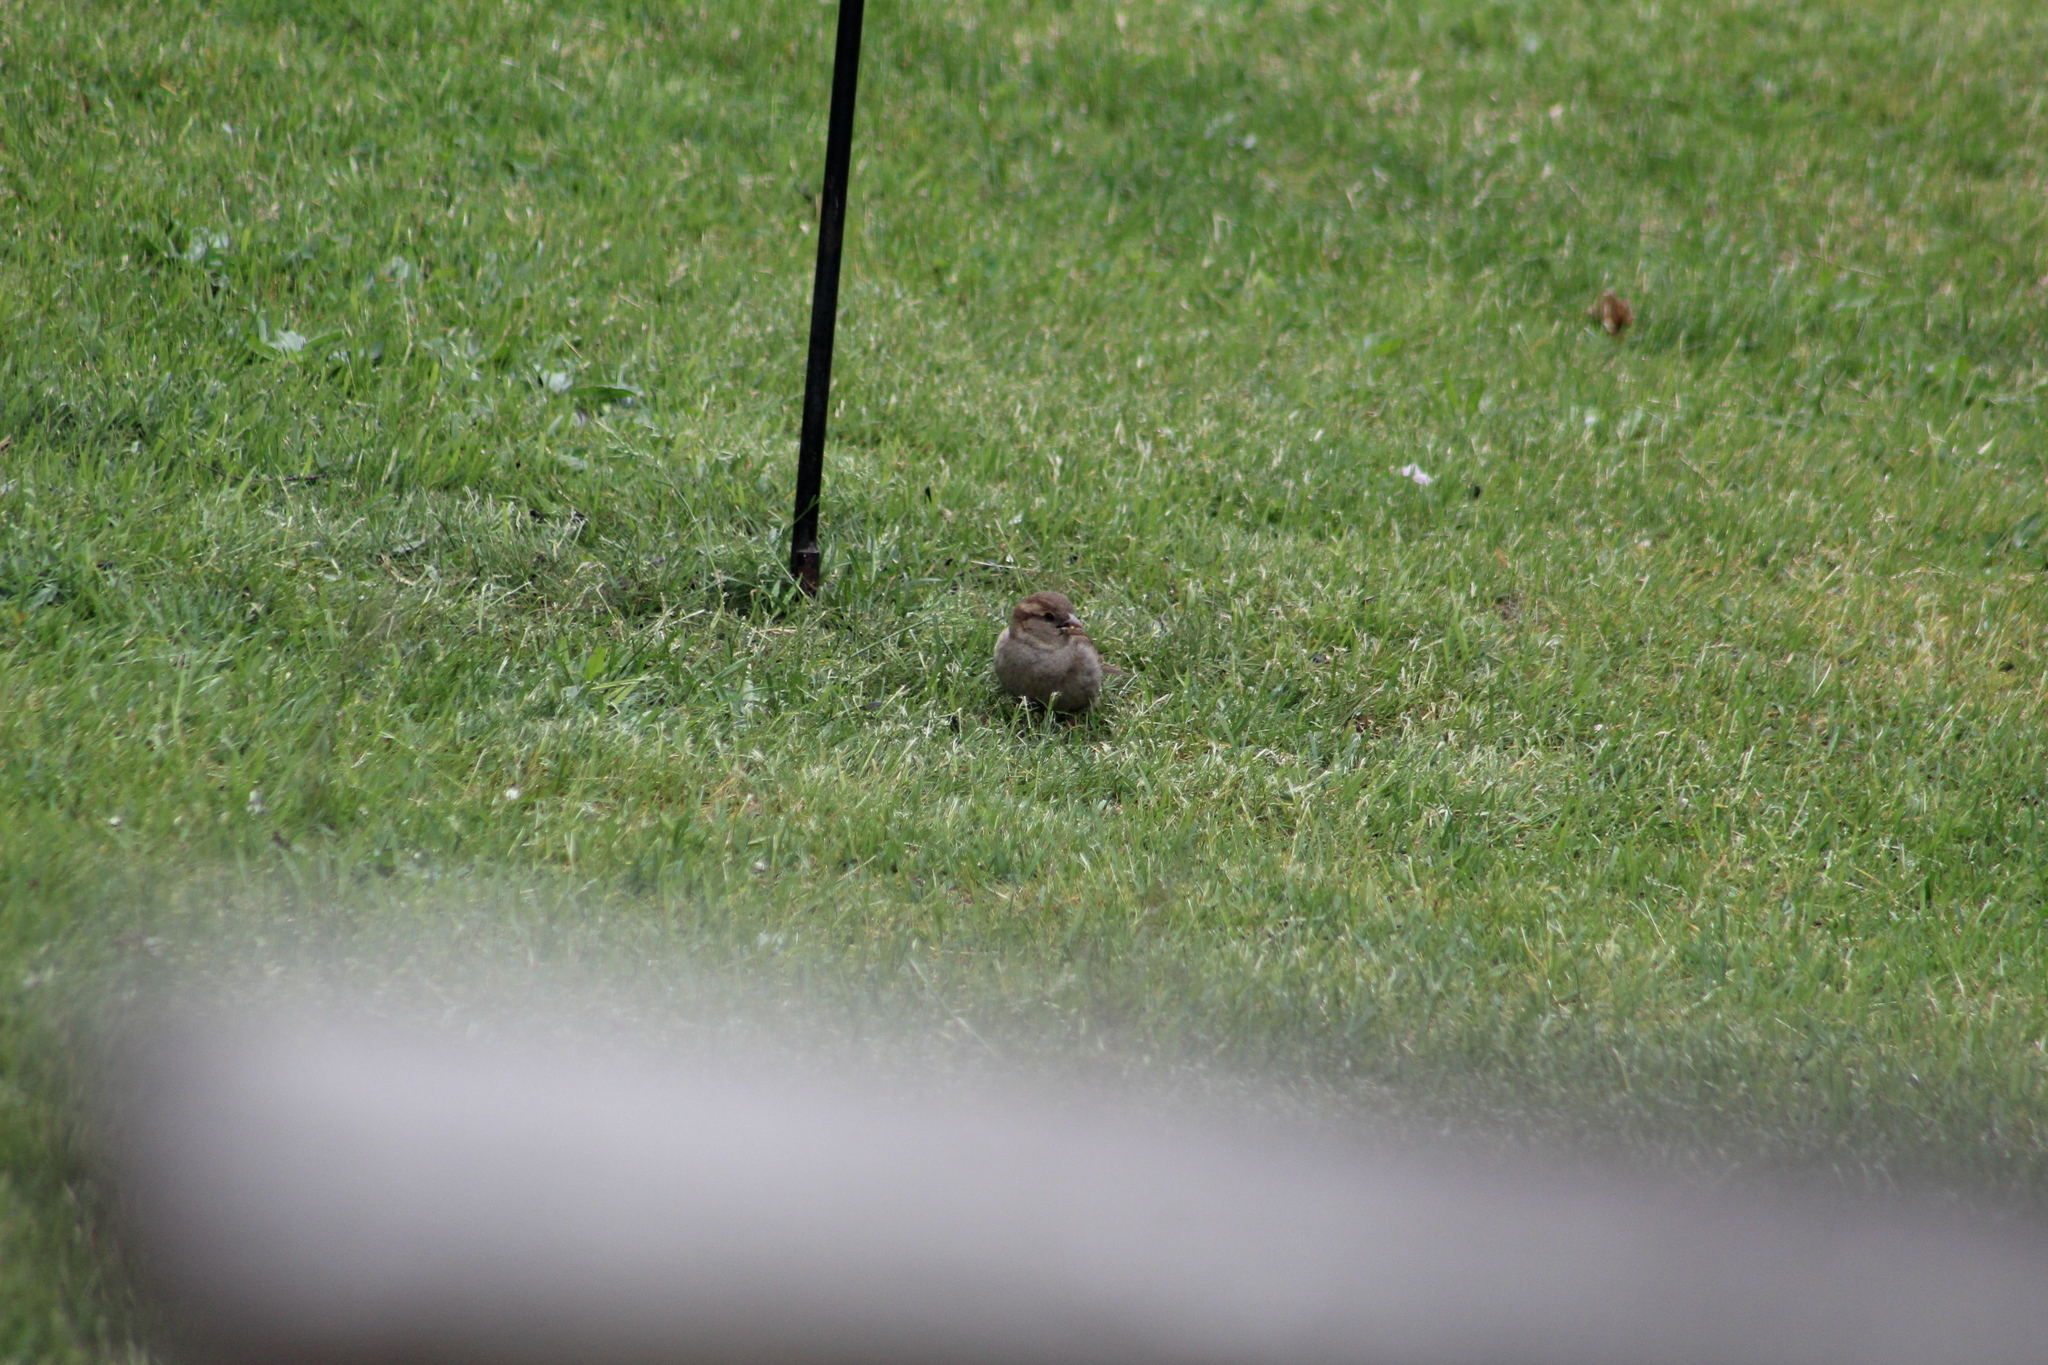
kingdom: Animalia
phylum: Chordata
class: Aves
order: Passeriformes
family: Passeridae
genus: Passer
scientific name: Passer domesticus
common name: House sparrow
